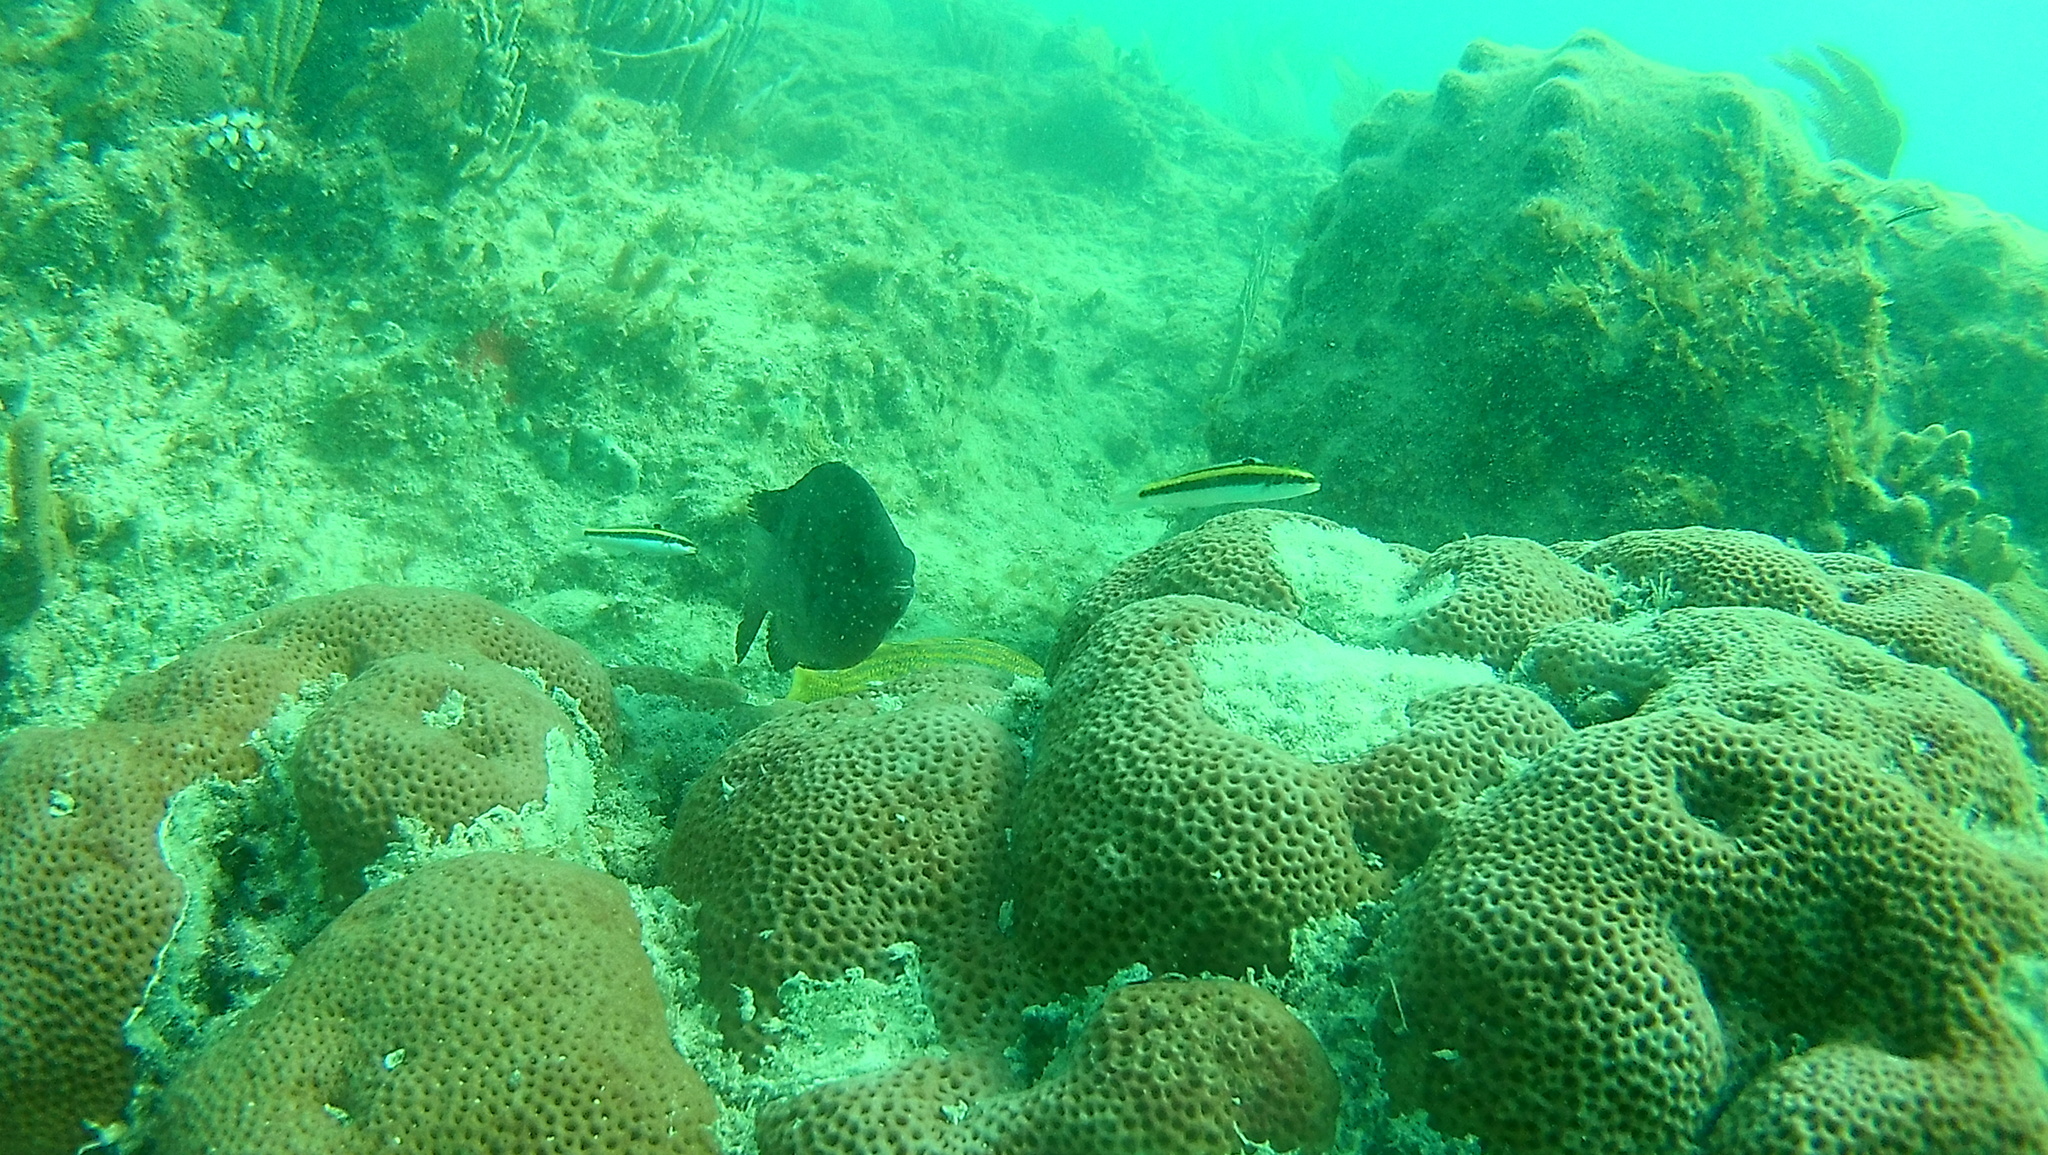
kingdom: Animalia
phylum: Chordata
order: Perciformes
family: Labridae
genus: Thalassoma
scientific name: Thalassoma bifasciatum
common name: Bluehead wrasse
